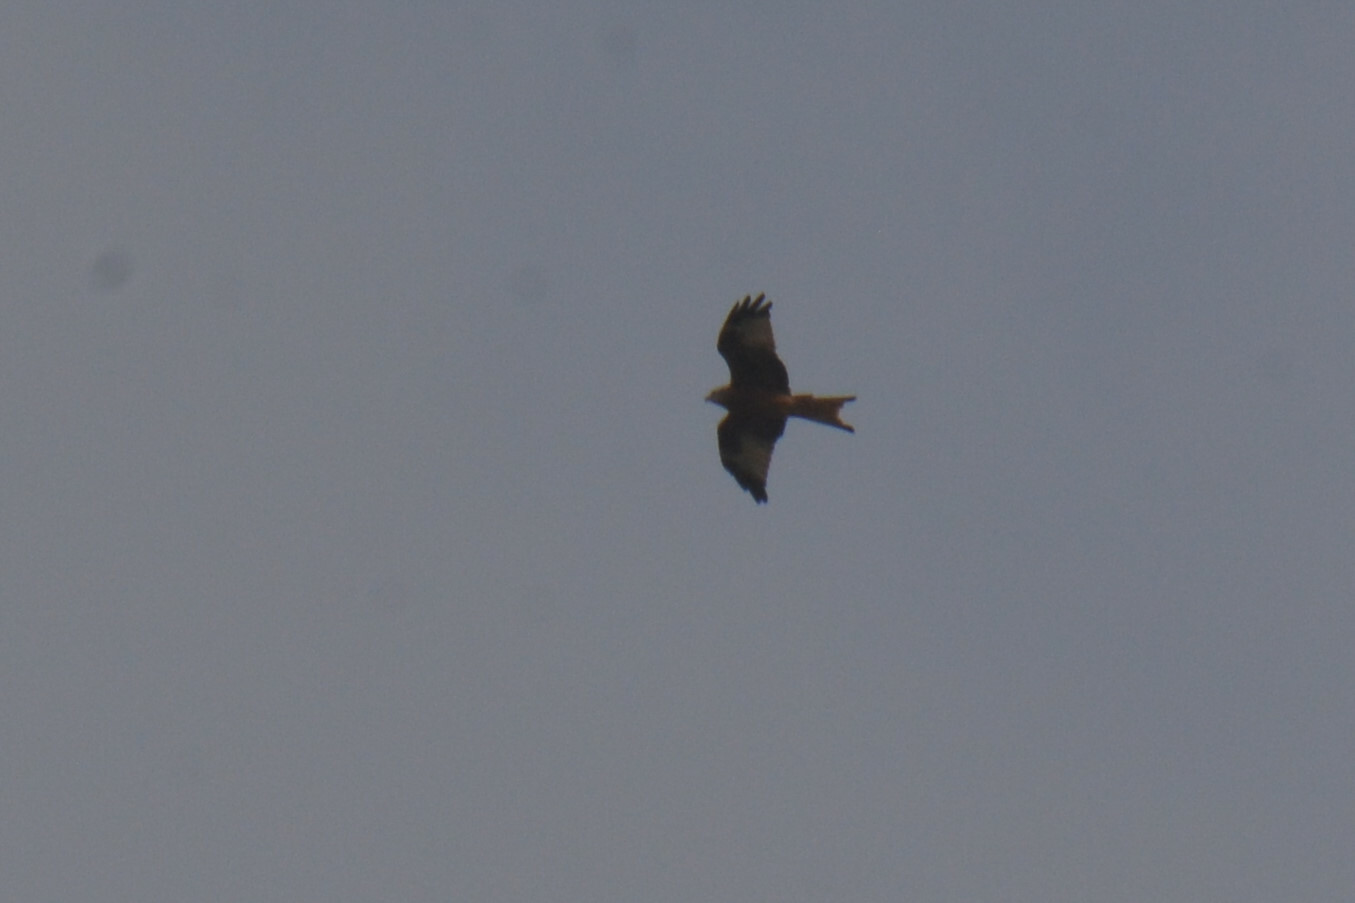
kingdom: Animalia
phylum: Chordata
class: Aves
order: Accipitriformes
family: Accipitridae
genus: Milvus
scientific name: Milvus milvus
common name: Red kite
